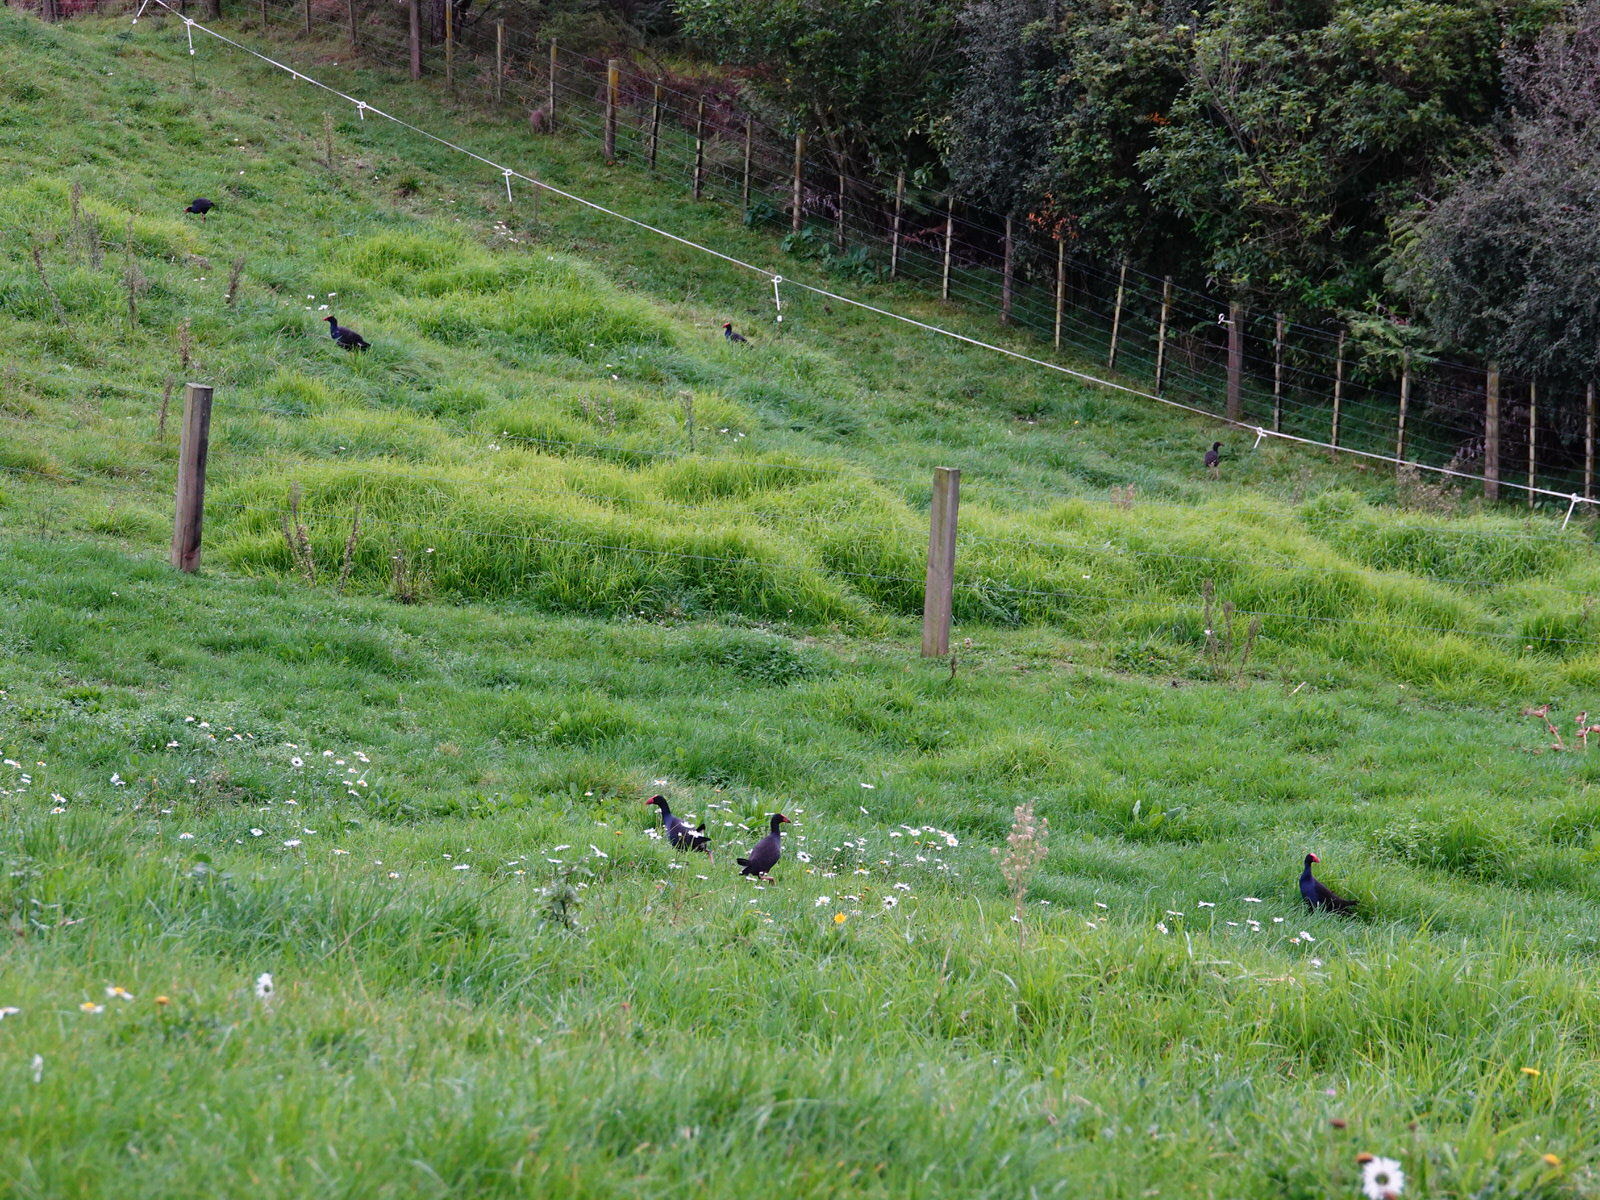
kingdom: Animalia
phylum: Chordata
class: Aves
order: Gruiformes
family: Rallidae
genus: Porphyrio
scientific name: Porphyrio melanotus
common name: Australasian swamphen
